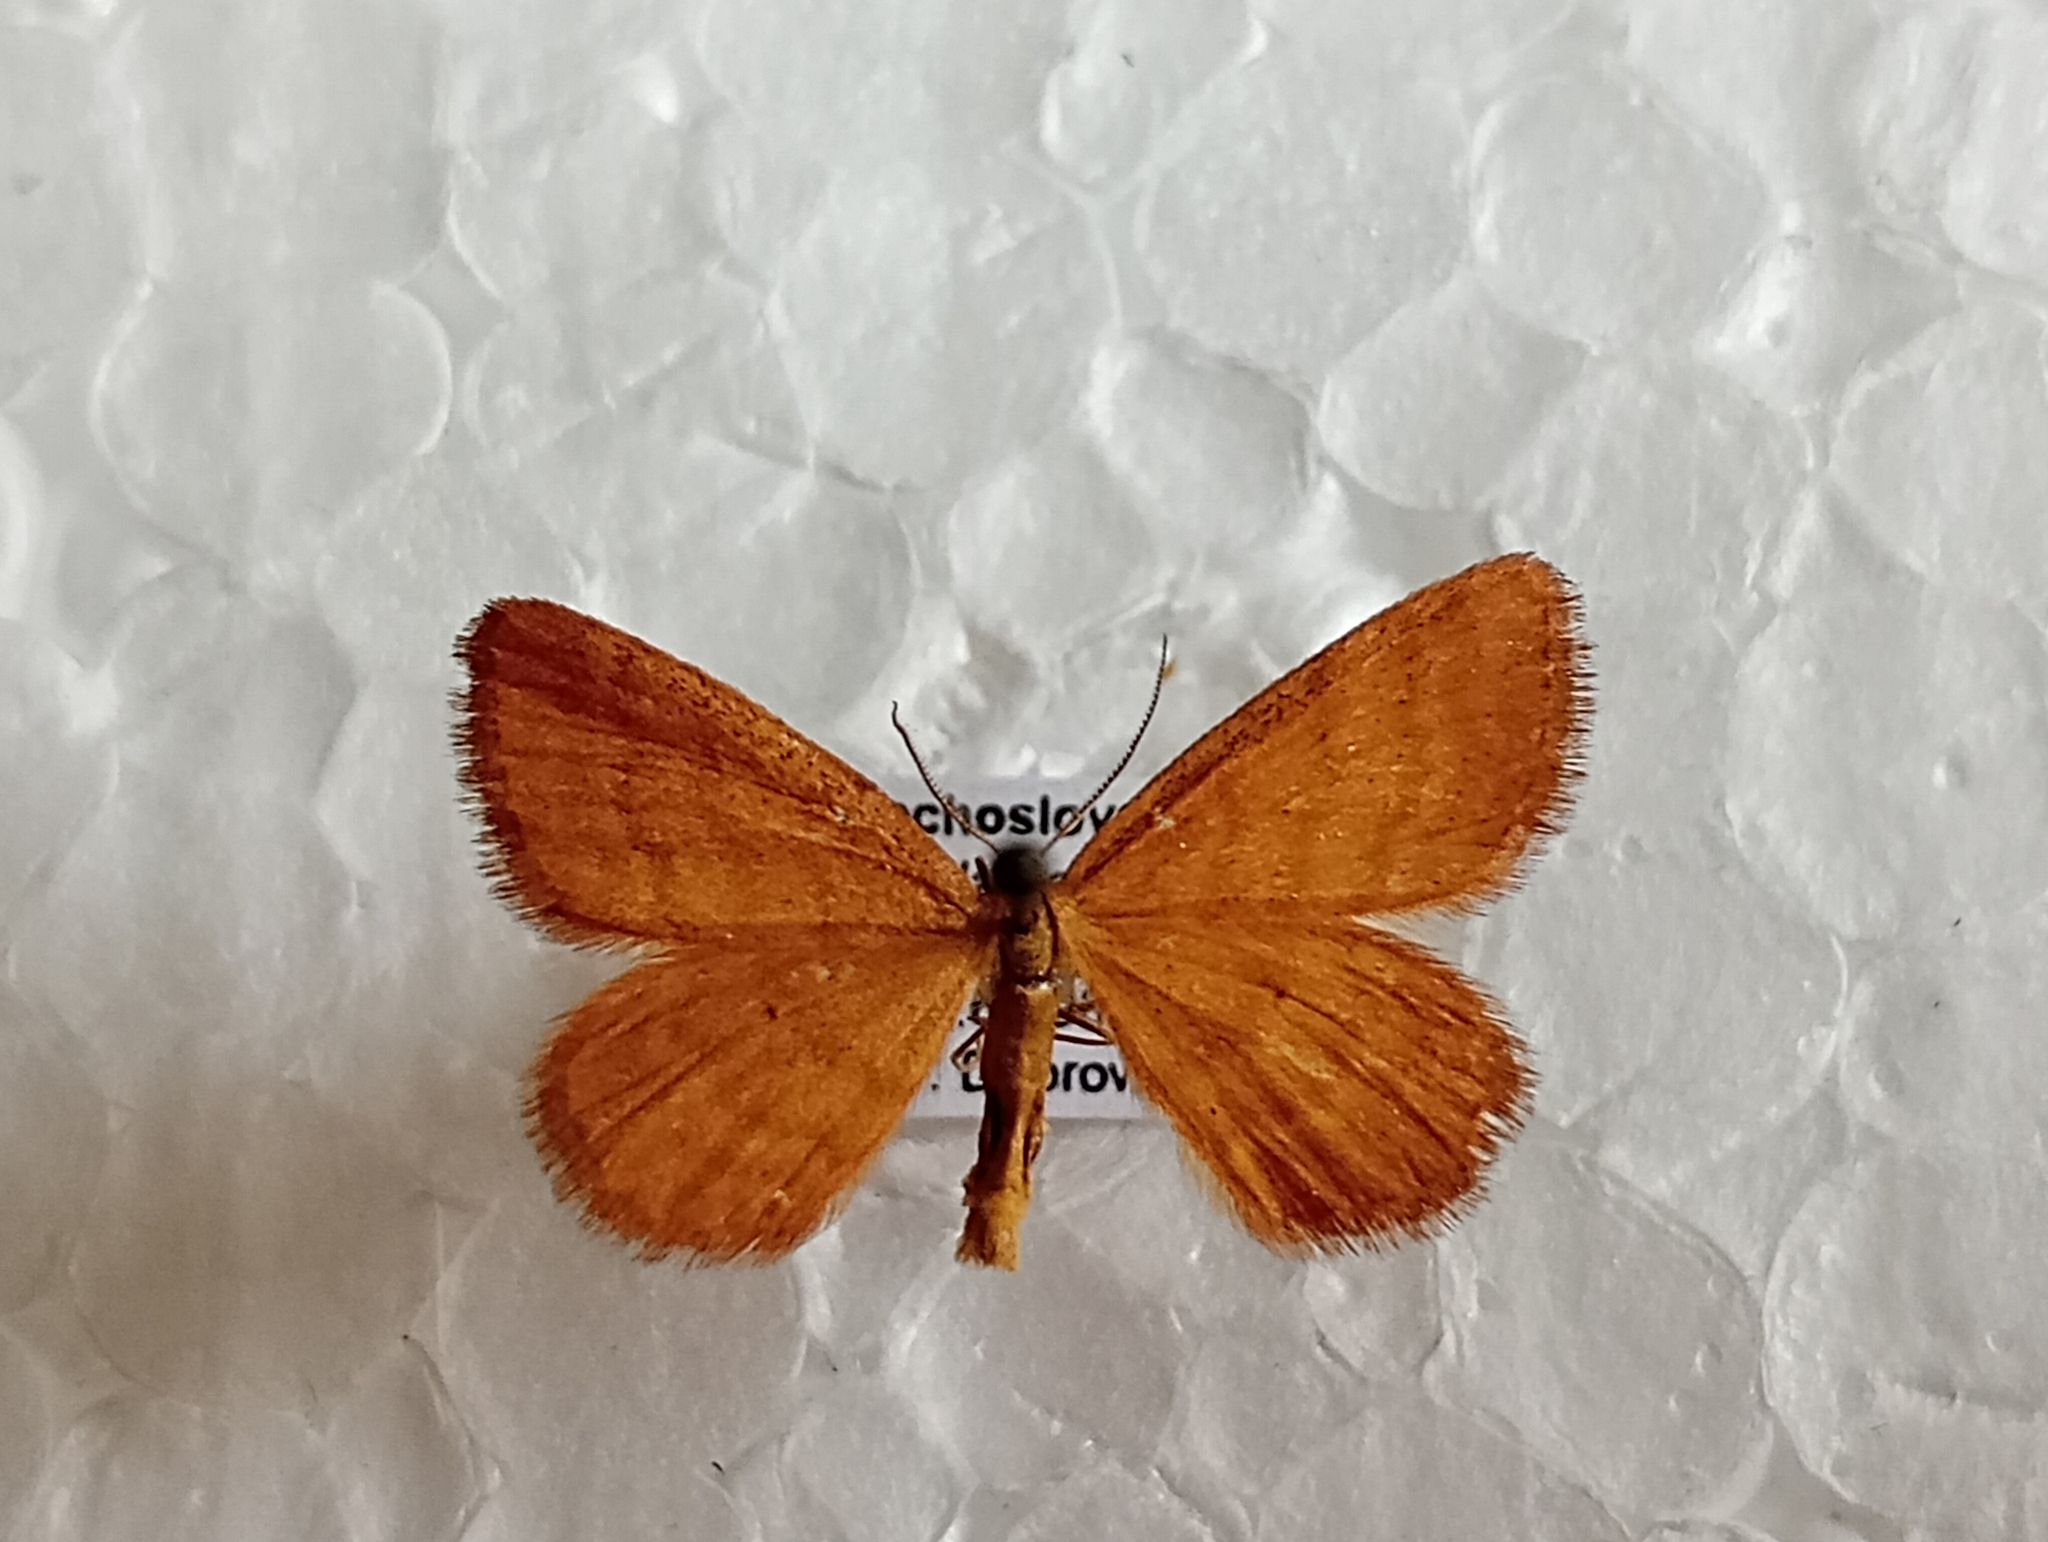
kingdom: Animalia
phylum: Arthropoda
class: Insecta
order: Lepidoptera
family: Geometridae
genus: Idaea
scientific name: Idaea serpentata
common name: Ochraceous wave
